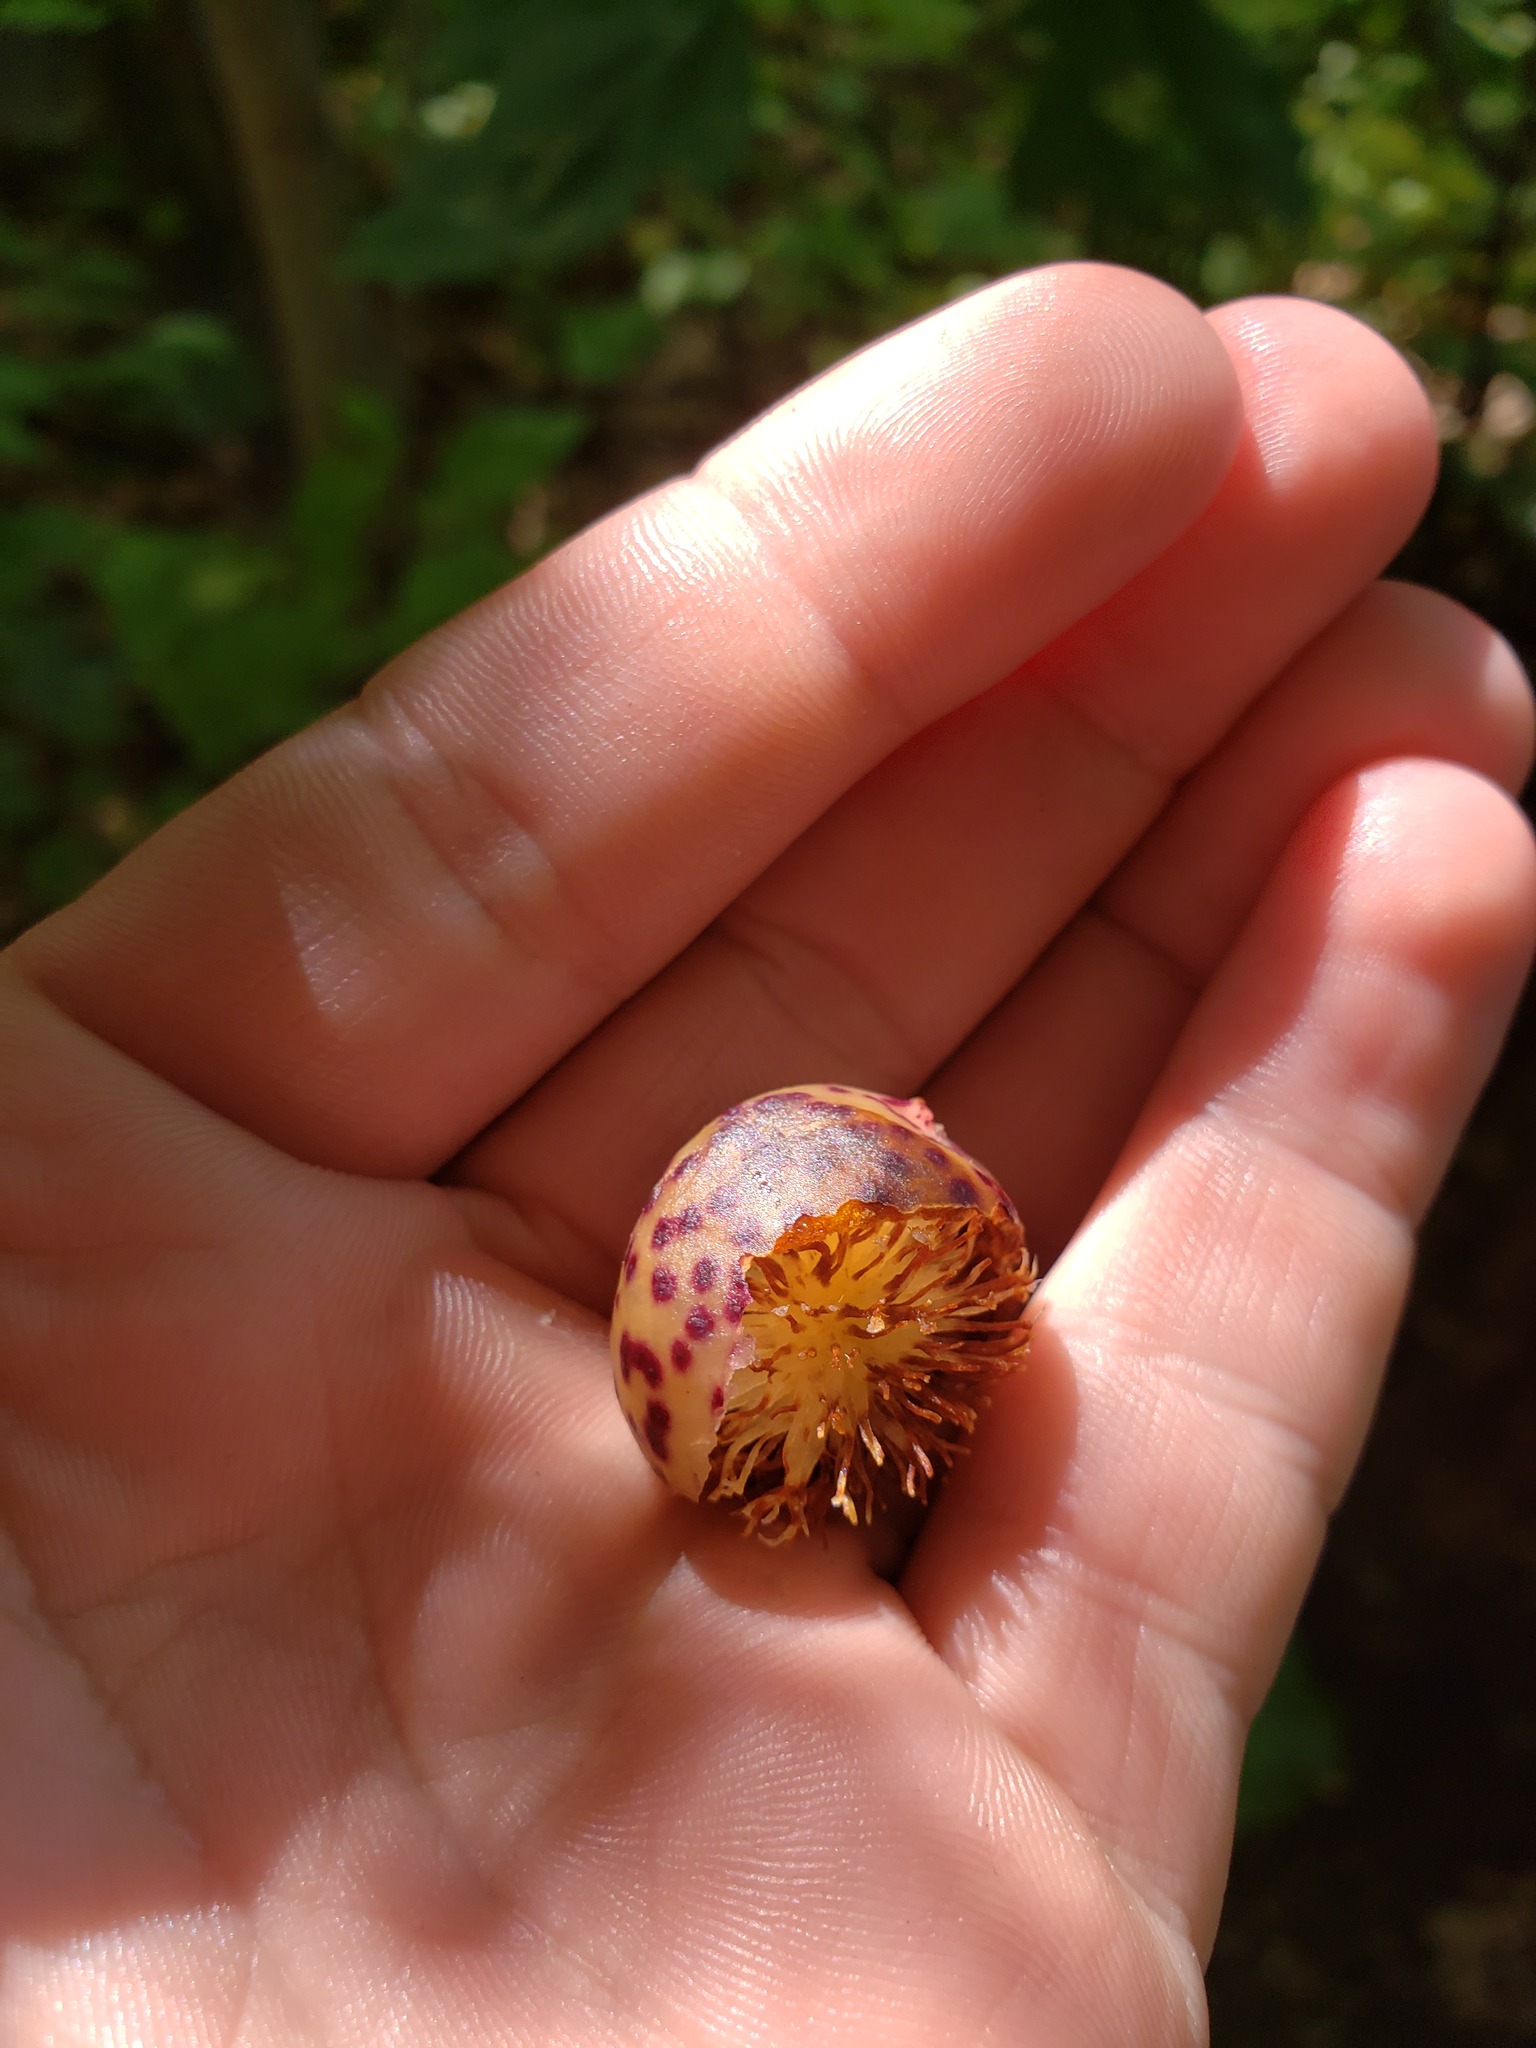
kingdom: Animalia
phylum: Arthropoda
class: Insecta
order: Hymenoptera
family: Cynipidae
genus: Amphibolips
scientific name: Amphibolips
